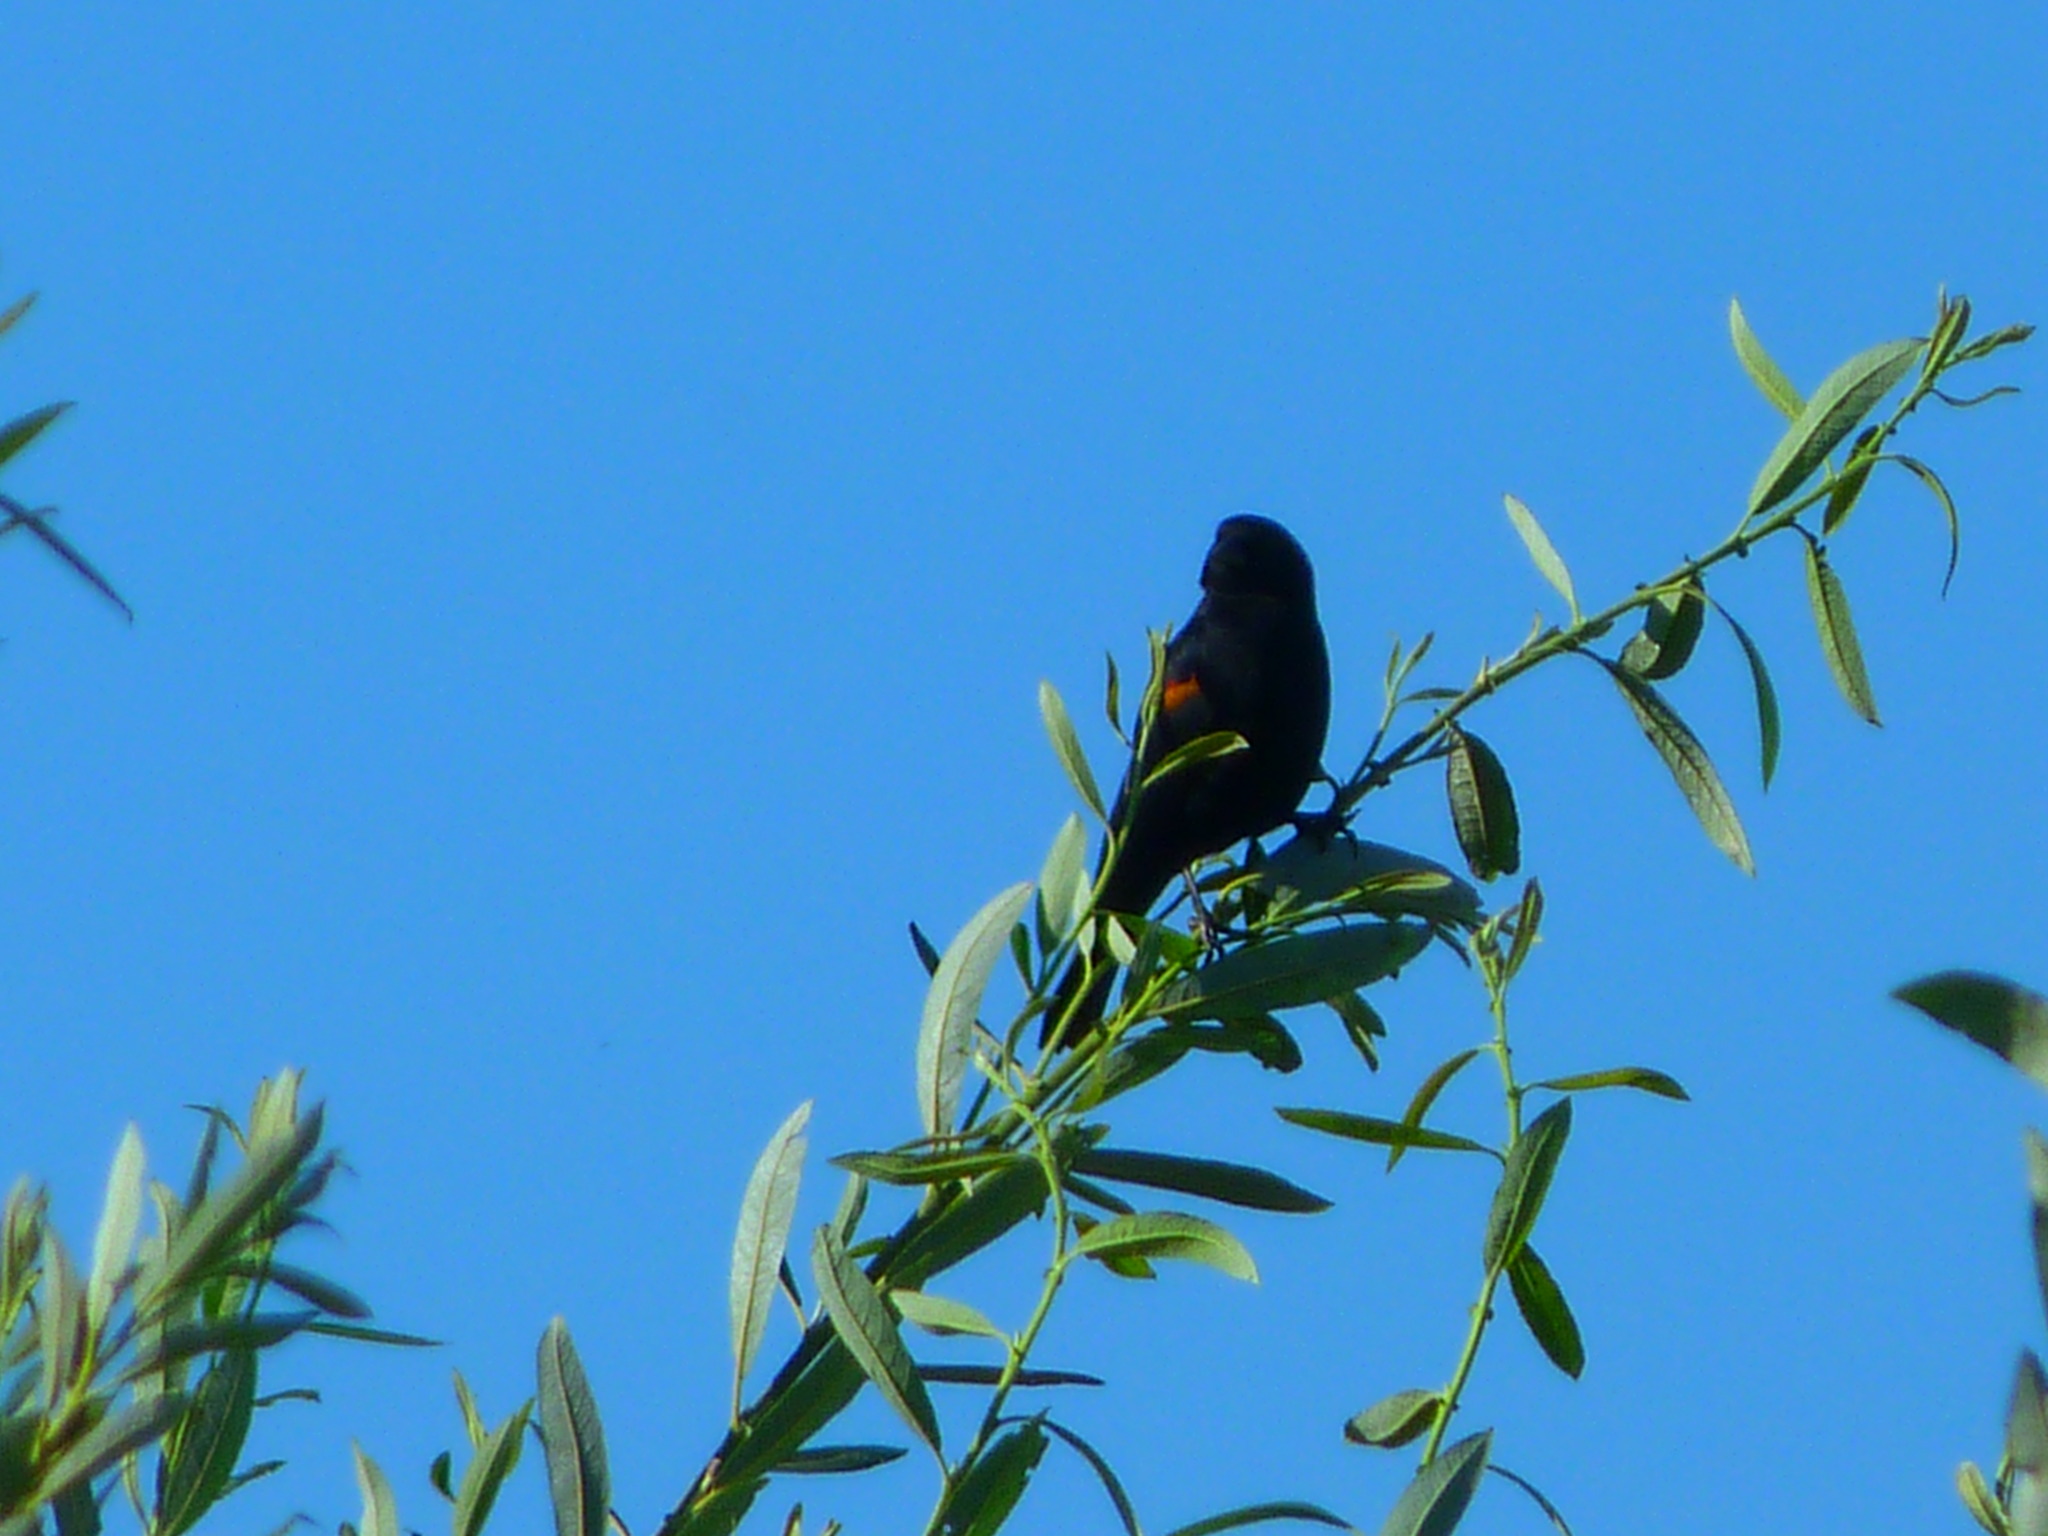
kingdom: Animalia
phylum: Chordata
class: Aves
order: Passeriformes
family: Icteridae
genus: Agelaius
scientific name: Agelaius phoeniceus
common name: Red-winged blackbird
